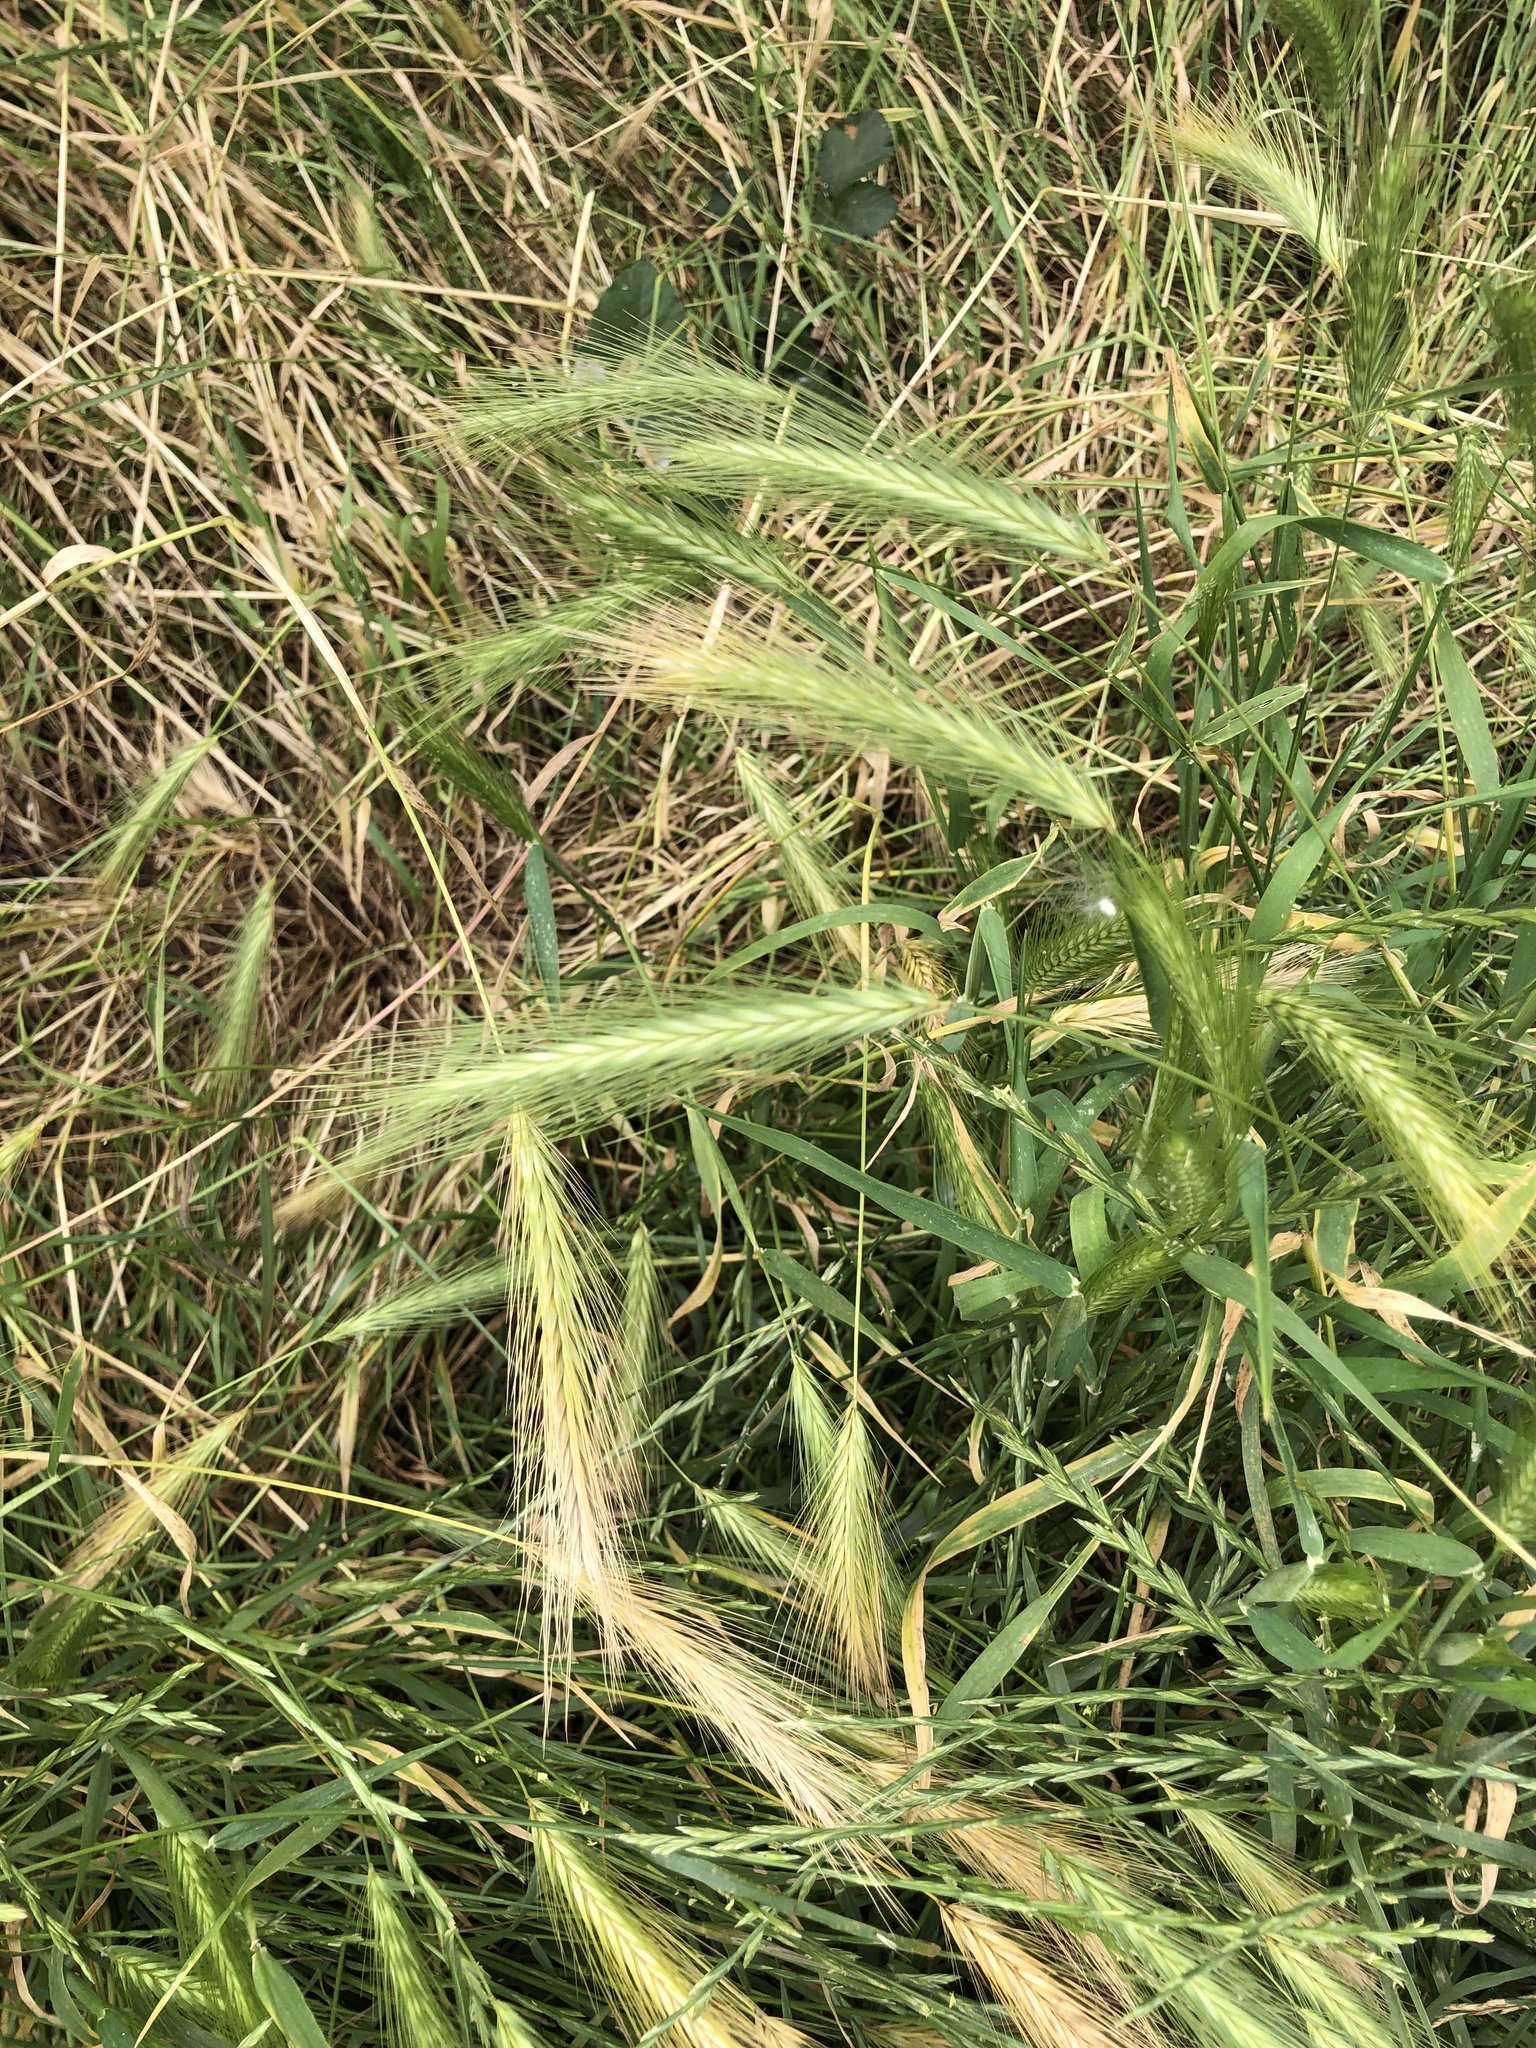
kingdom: Plantae
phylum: Tracheophyta
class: Liliopsida
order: Poales
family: Poaceae
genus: Hordeum
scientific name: Hordeum murinum
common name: Wall barley
